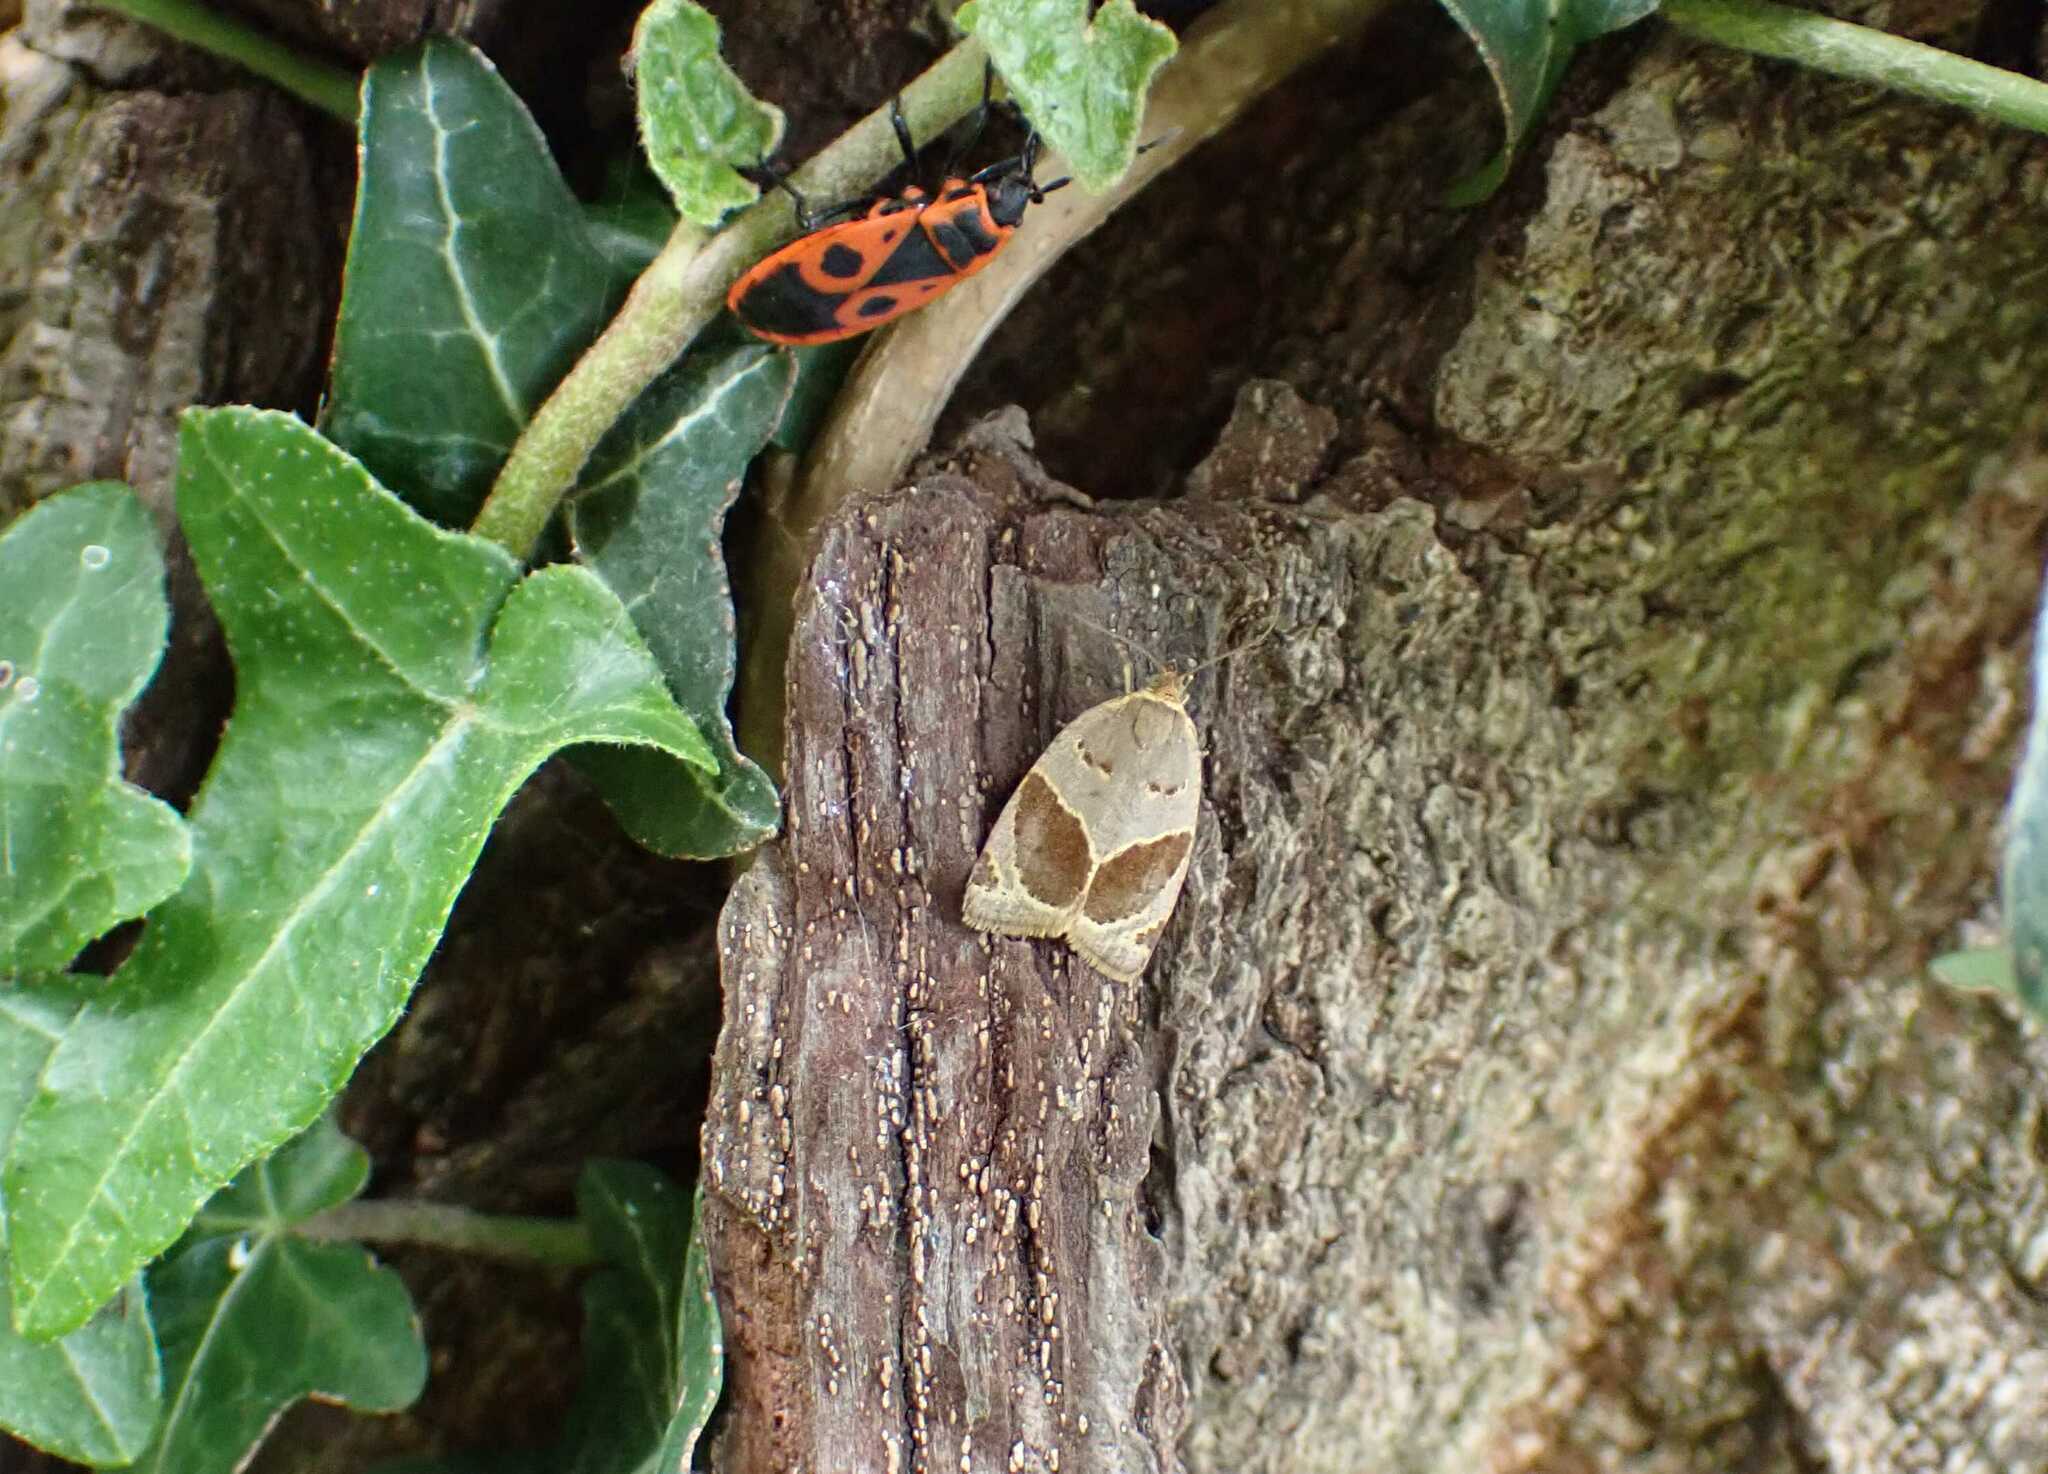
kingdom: Animalia
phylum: Arthropoda
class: Insecta
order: Lepidoptera
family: Tortricidae
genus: Clepsis
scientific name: Clepsis dumicolana
